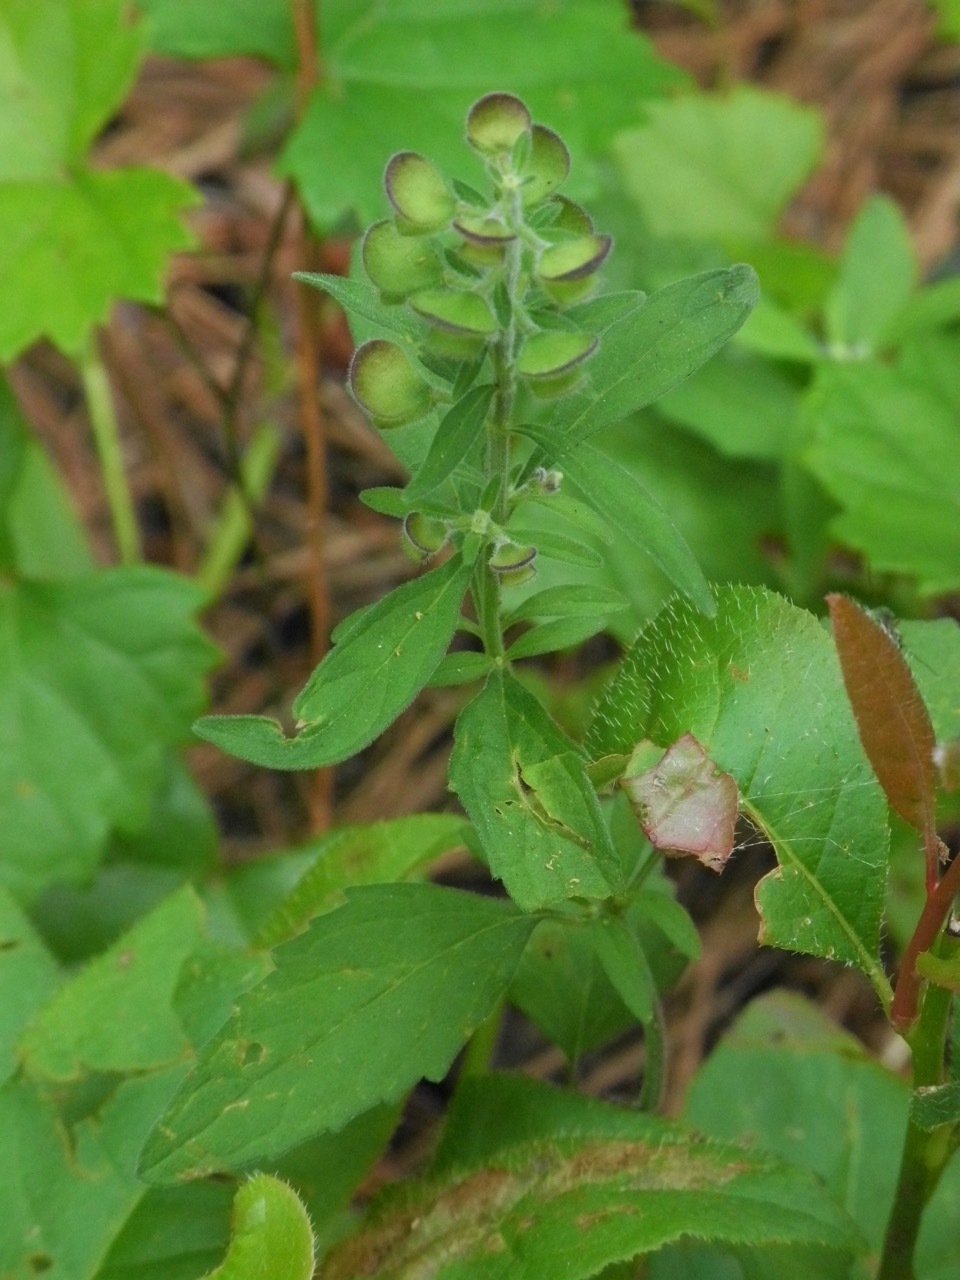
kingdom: Plantae
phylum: Tracheophyta
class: Magnoliopsida
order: Lamiales
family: Lamiaceae
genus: Scutellaria
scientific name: Scutellaria integrifolia
